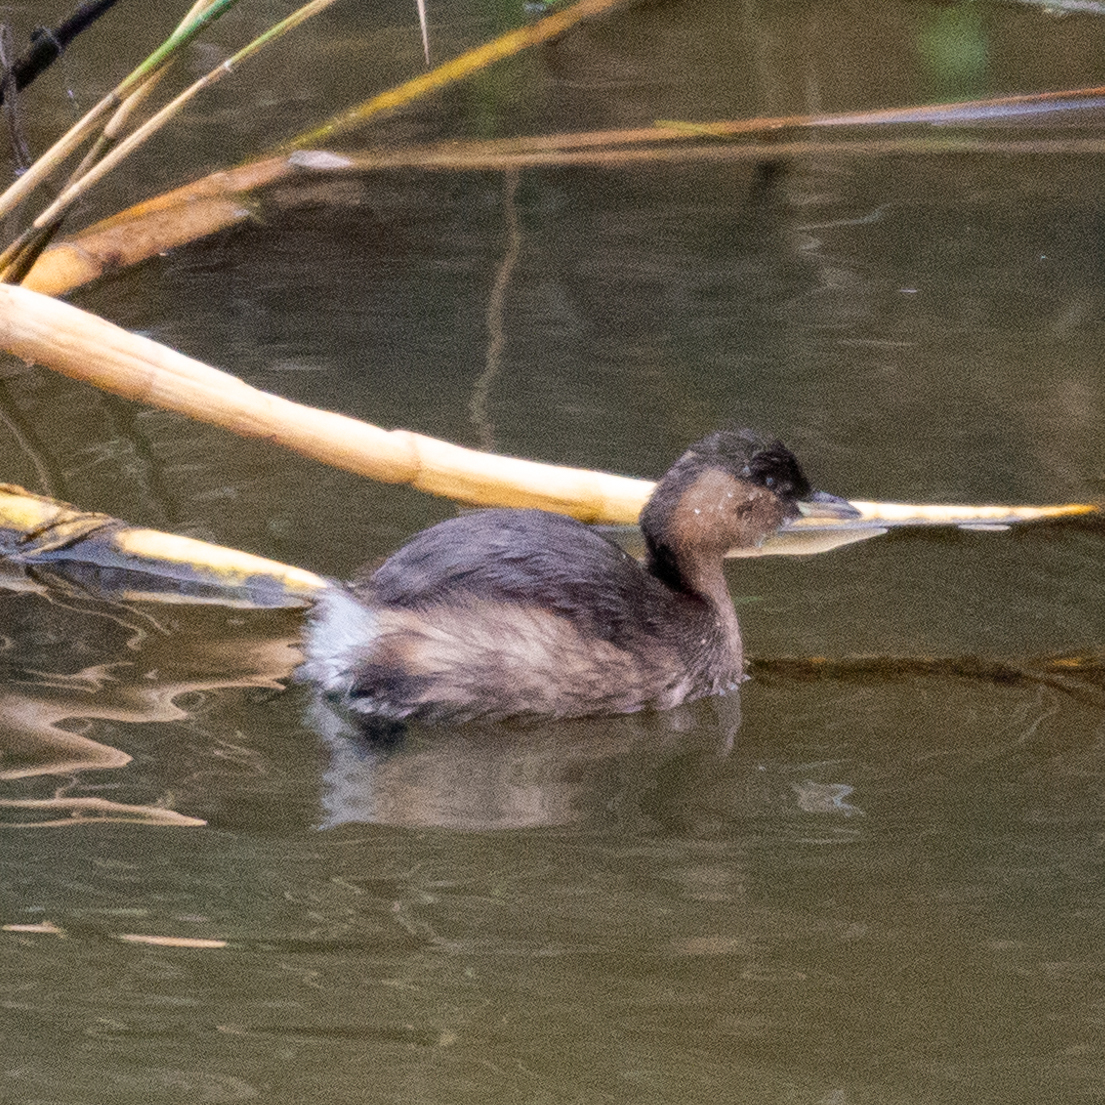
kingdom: Animalia
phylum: Chordata
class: Aves
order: Podicipediformes
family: Podicipedidae
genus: Tachybaptus
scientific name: Tachybaptus ruficollis
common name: Little grebe
